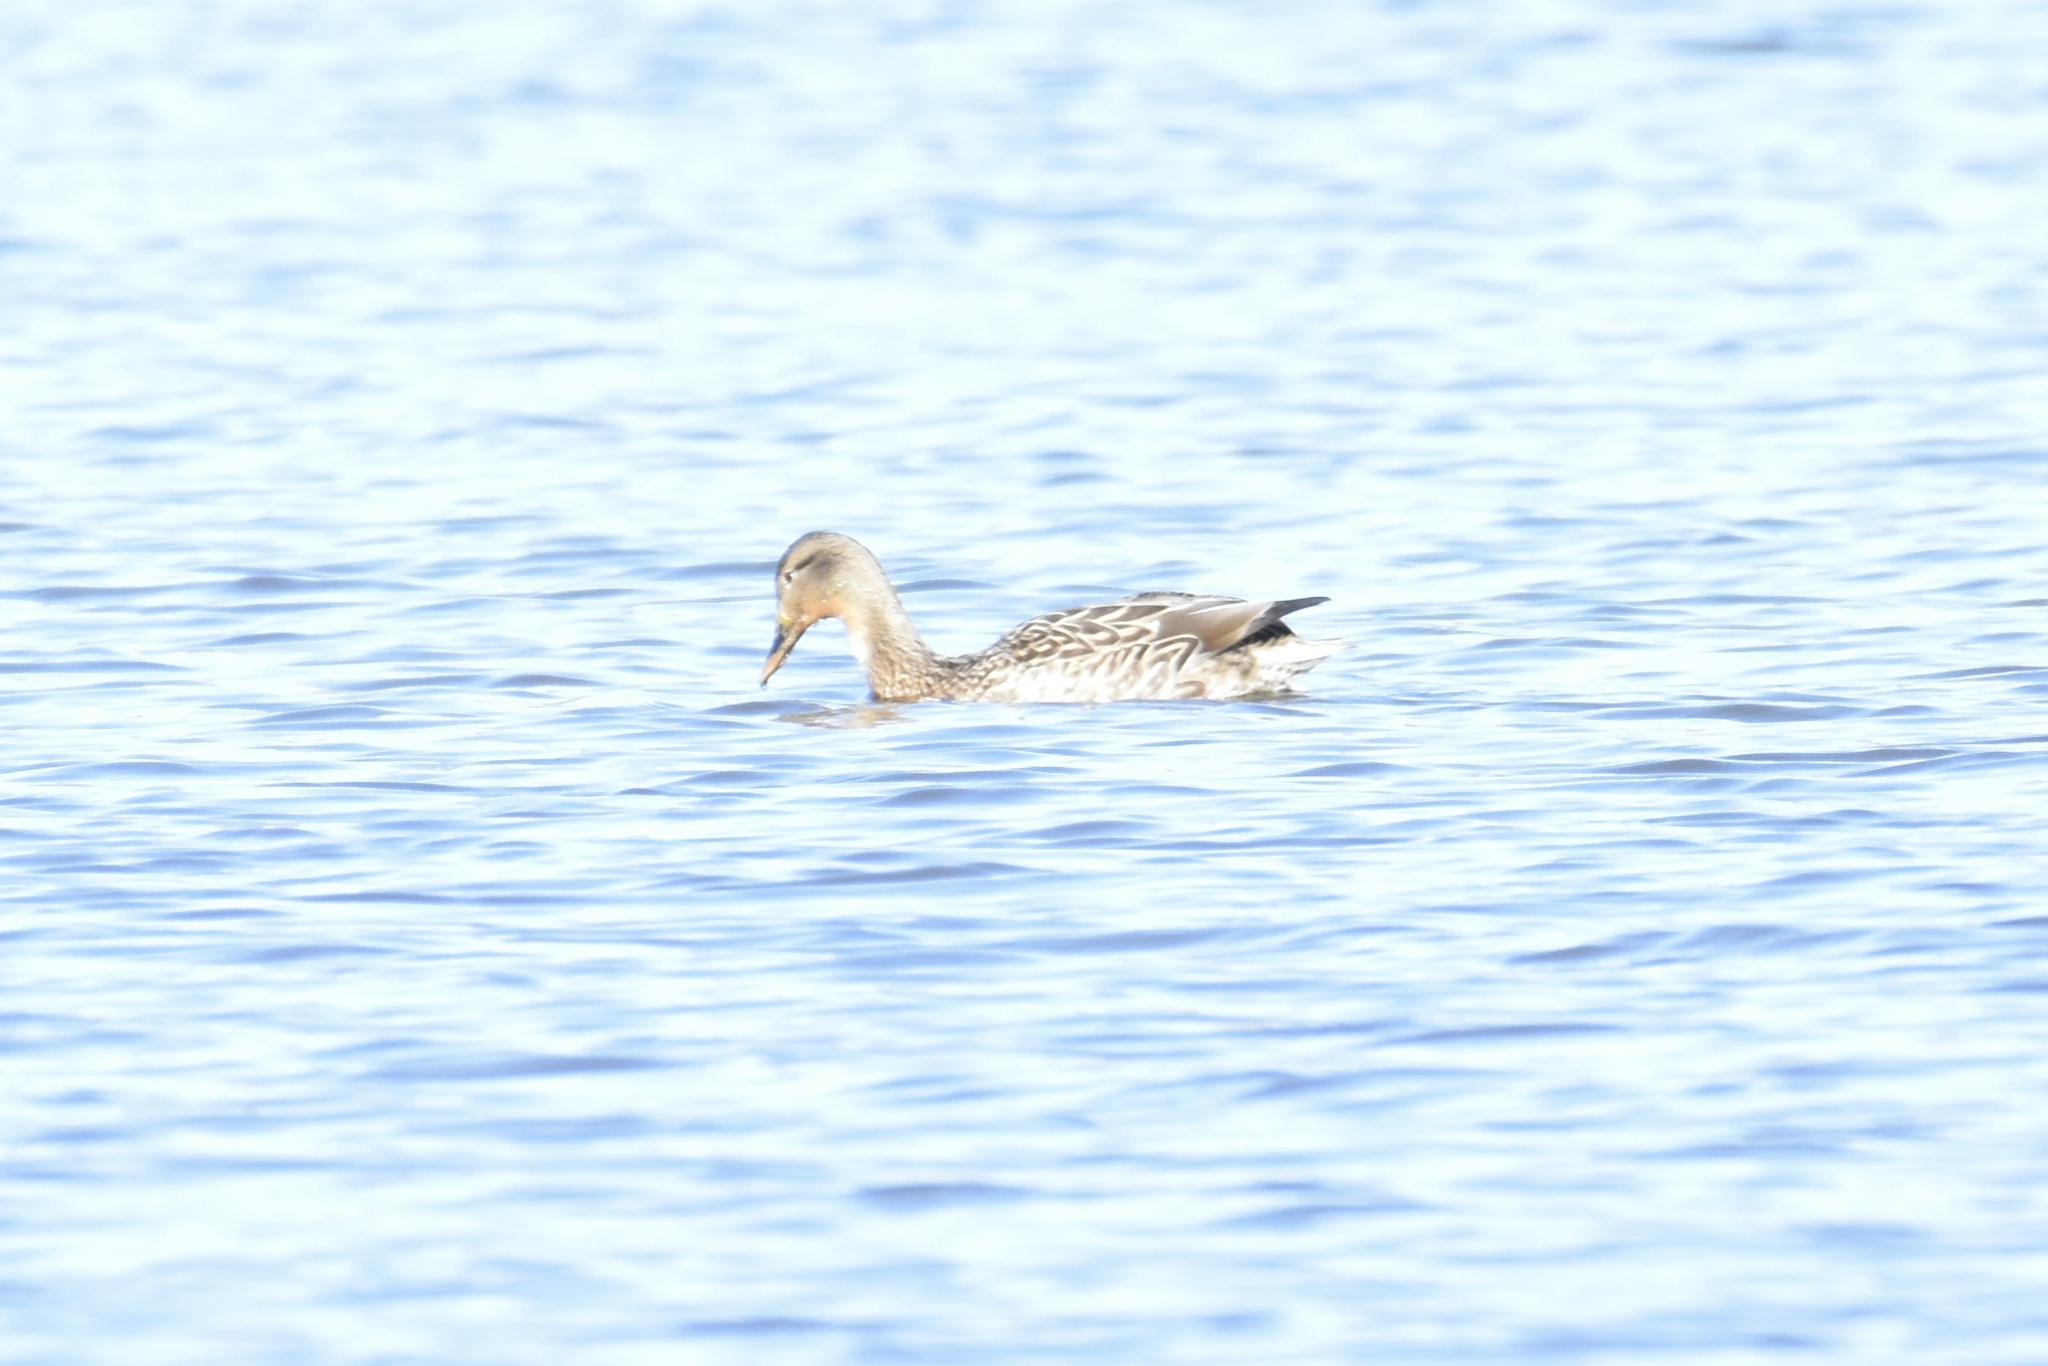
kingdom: Animalia
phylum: Chordata
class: Aves
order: Anseriformes
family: Anatidae
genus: Anas
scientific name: Anas platyrhynchos
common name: Mallard
